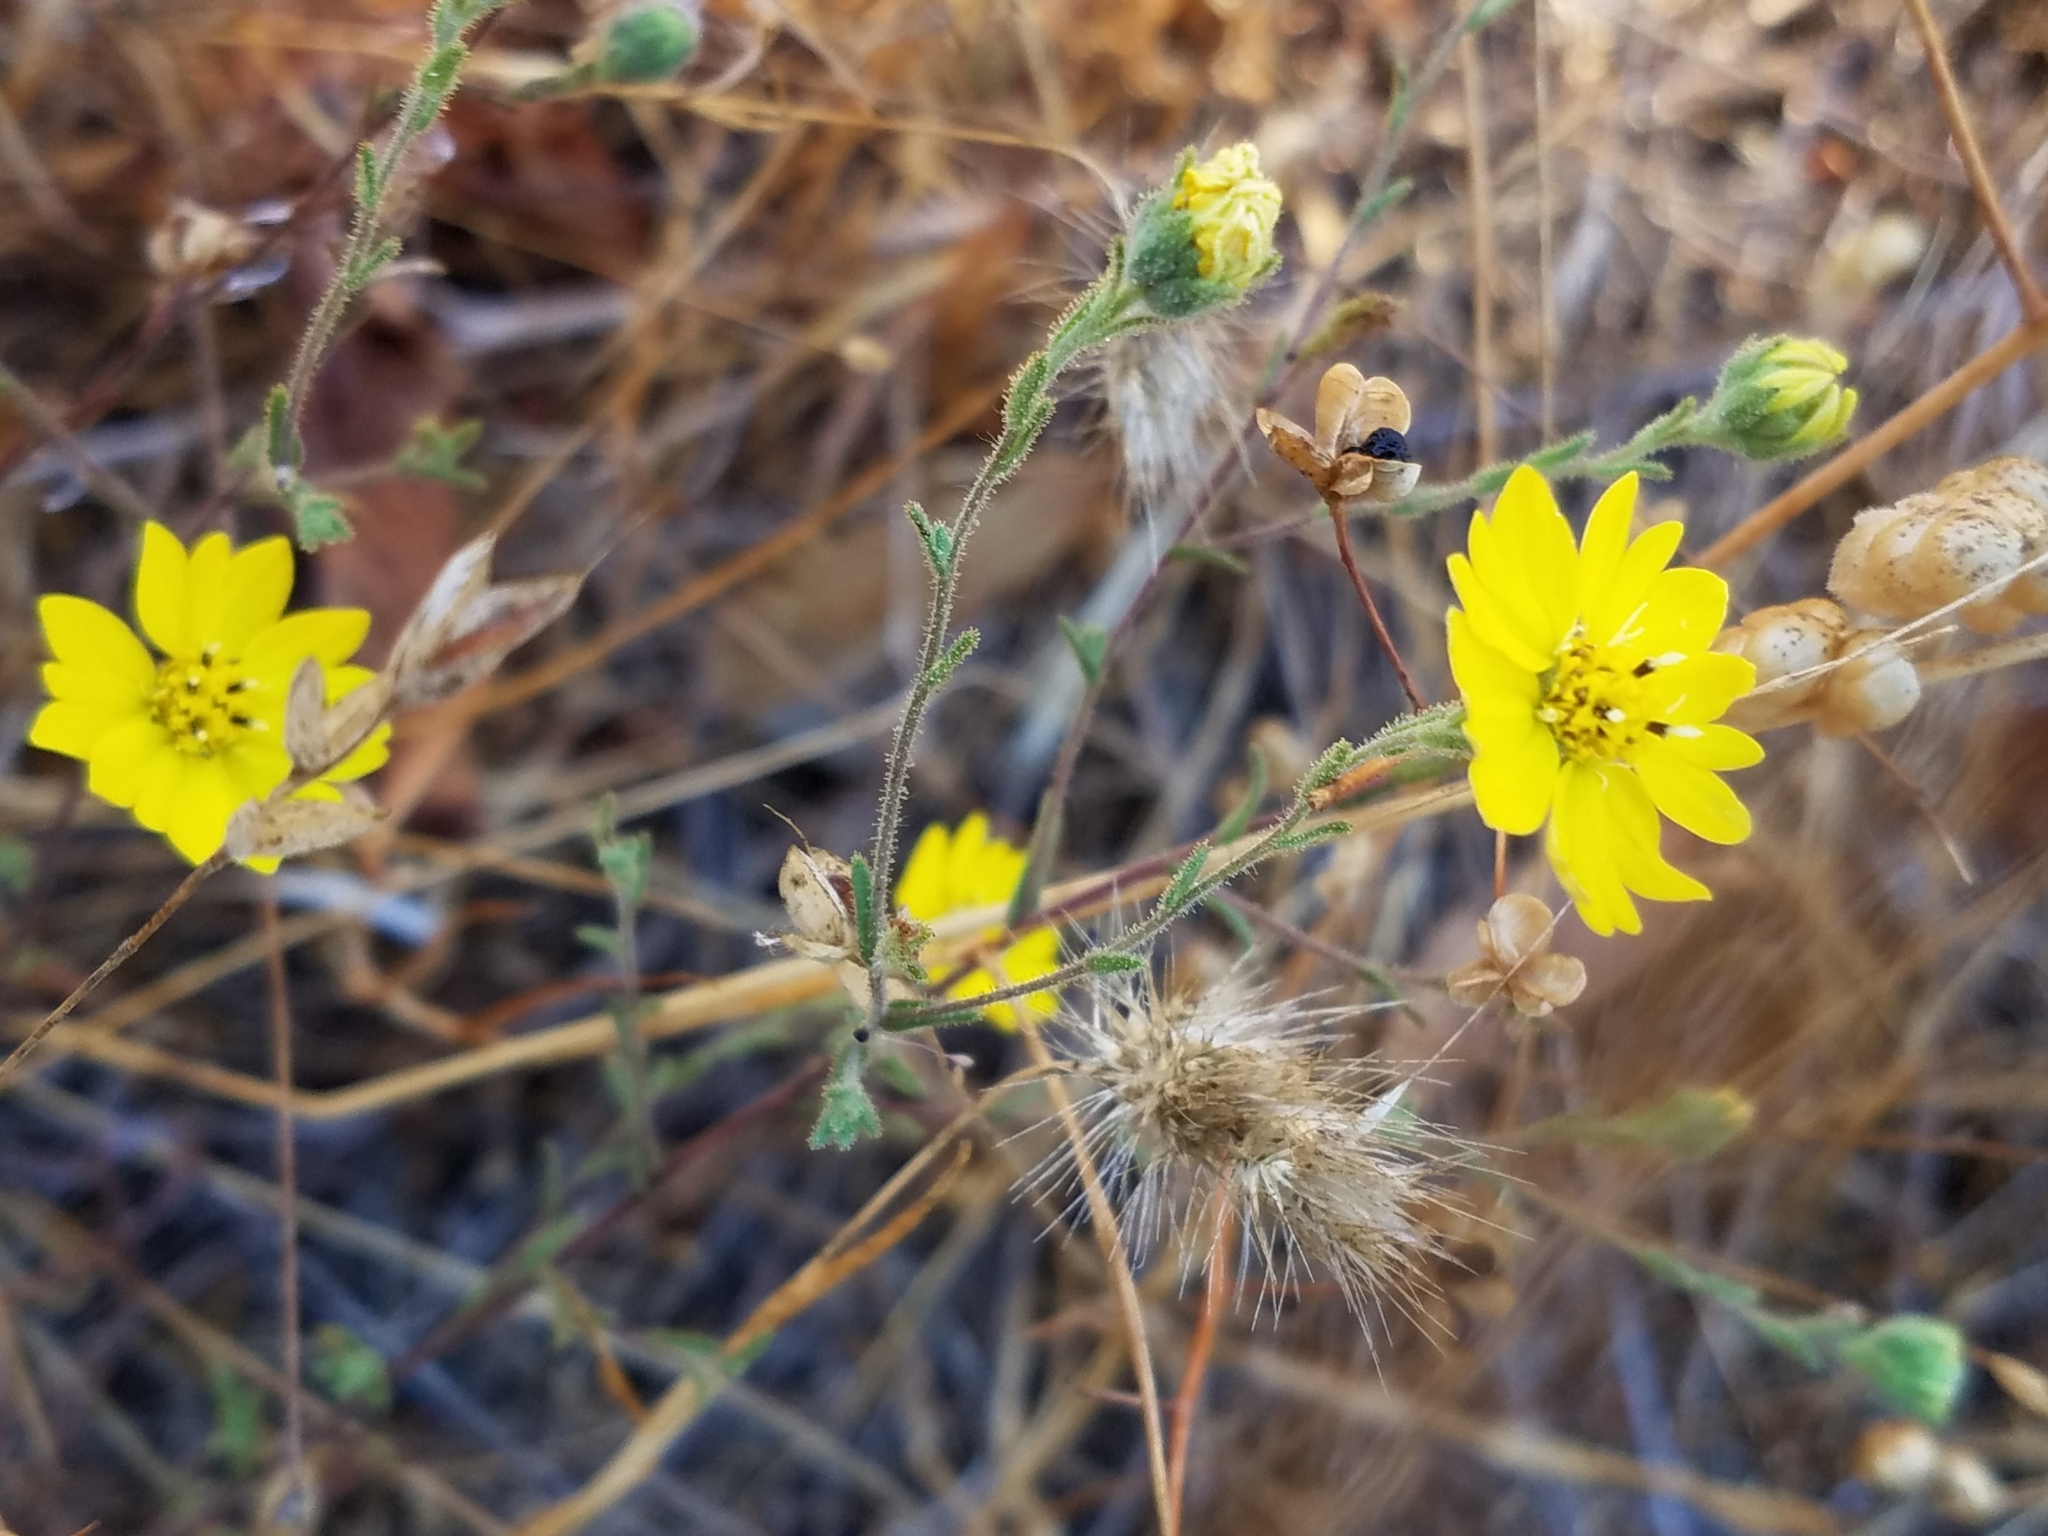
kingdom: Plantae
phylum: Tracheophyta
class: Magnoliopsida
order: Asterales
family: Asteraceae
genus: Hemizonia
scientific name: Hemizonia congesta
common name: Hayfield tarweed
